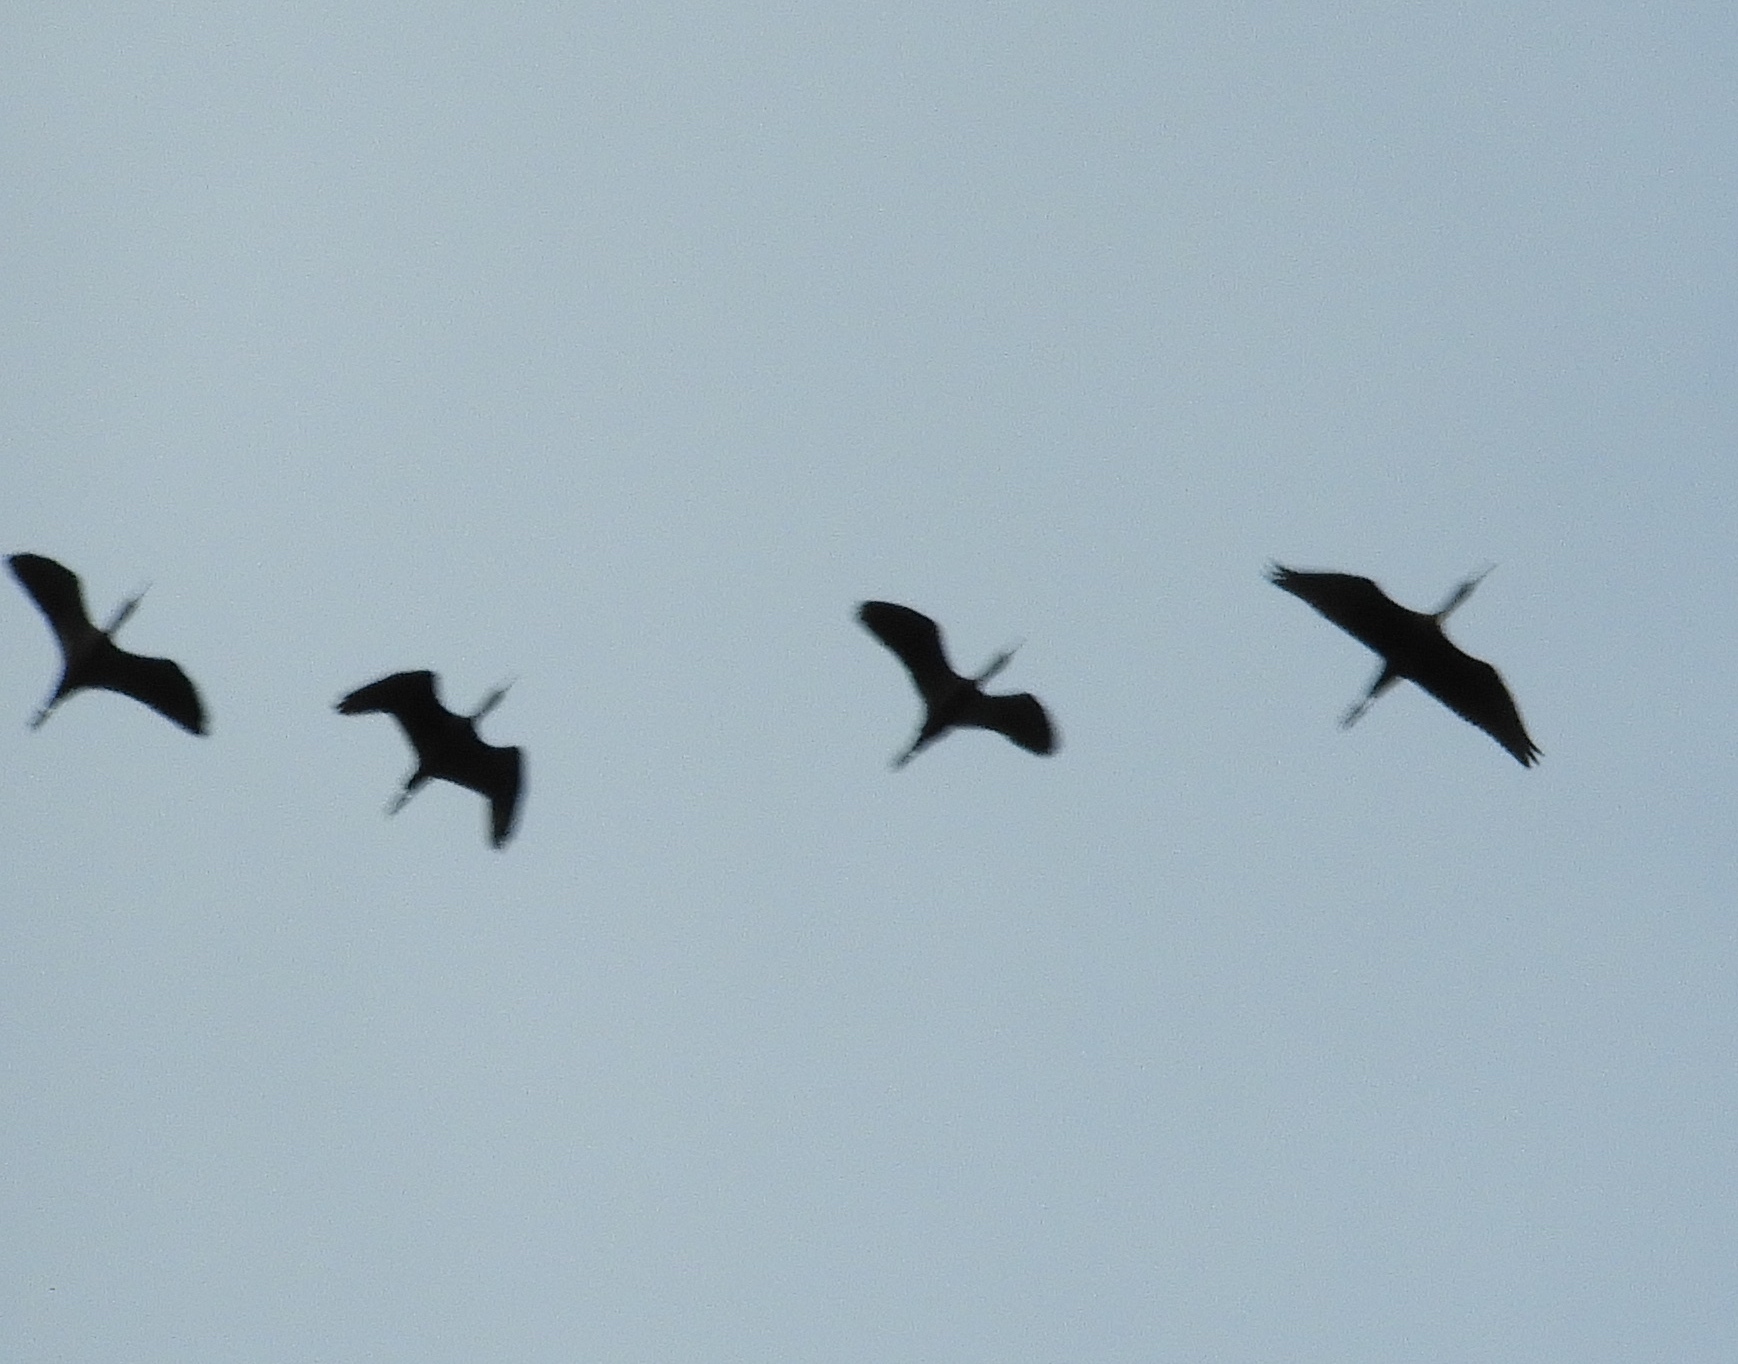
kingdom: Animalia
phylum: Chordata
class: Aves
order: Pelecaniformes
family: Threskiornithidae
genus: Plegadis
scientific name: Plegadis chihi
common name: White-faced ibis
